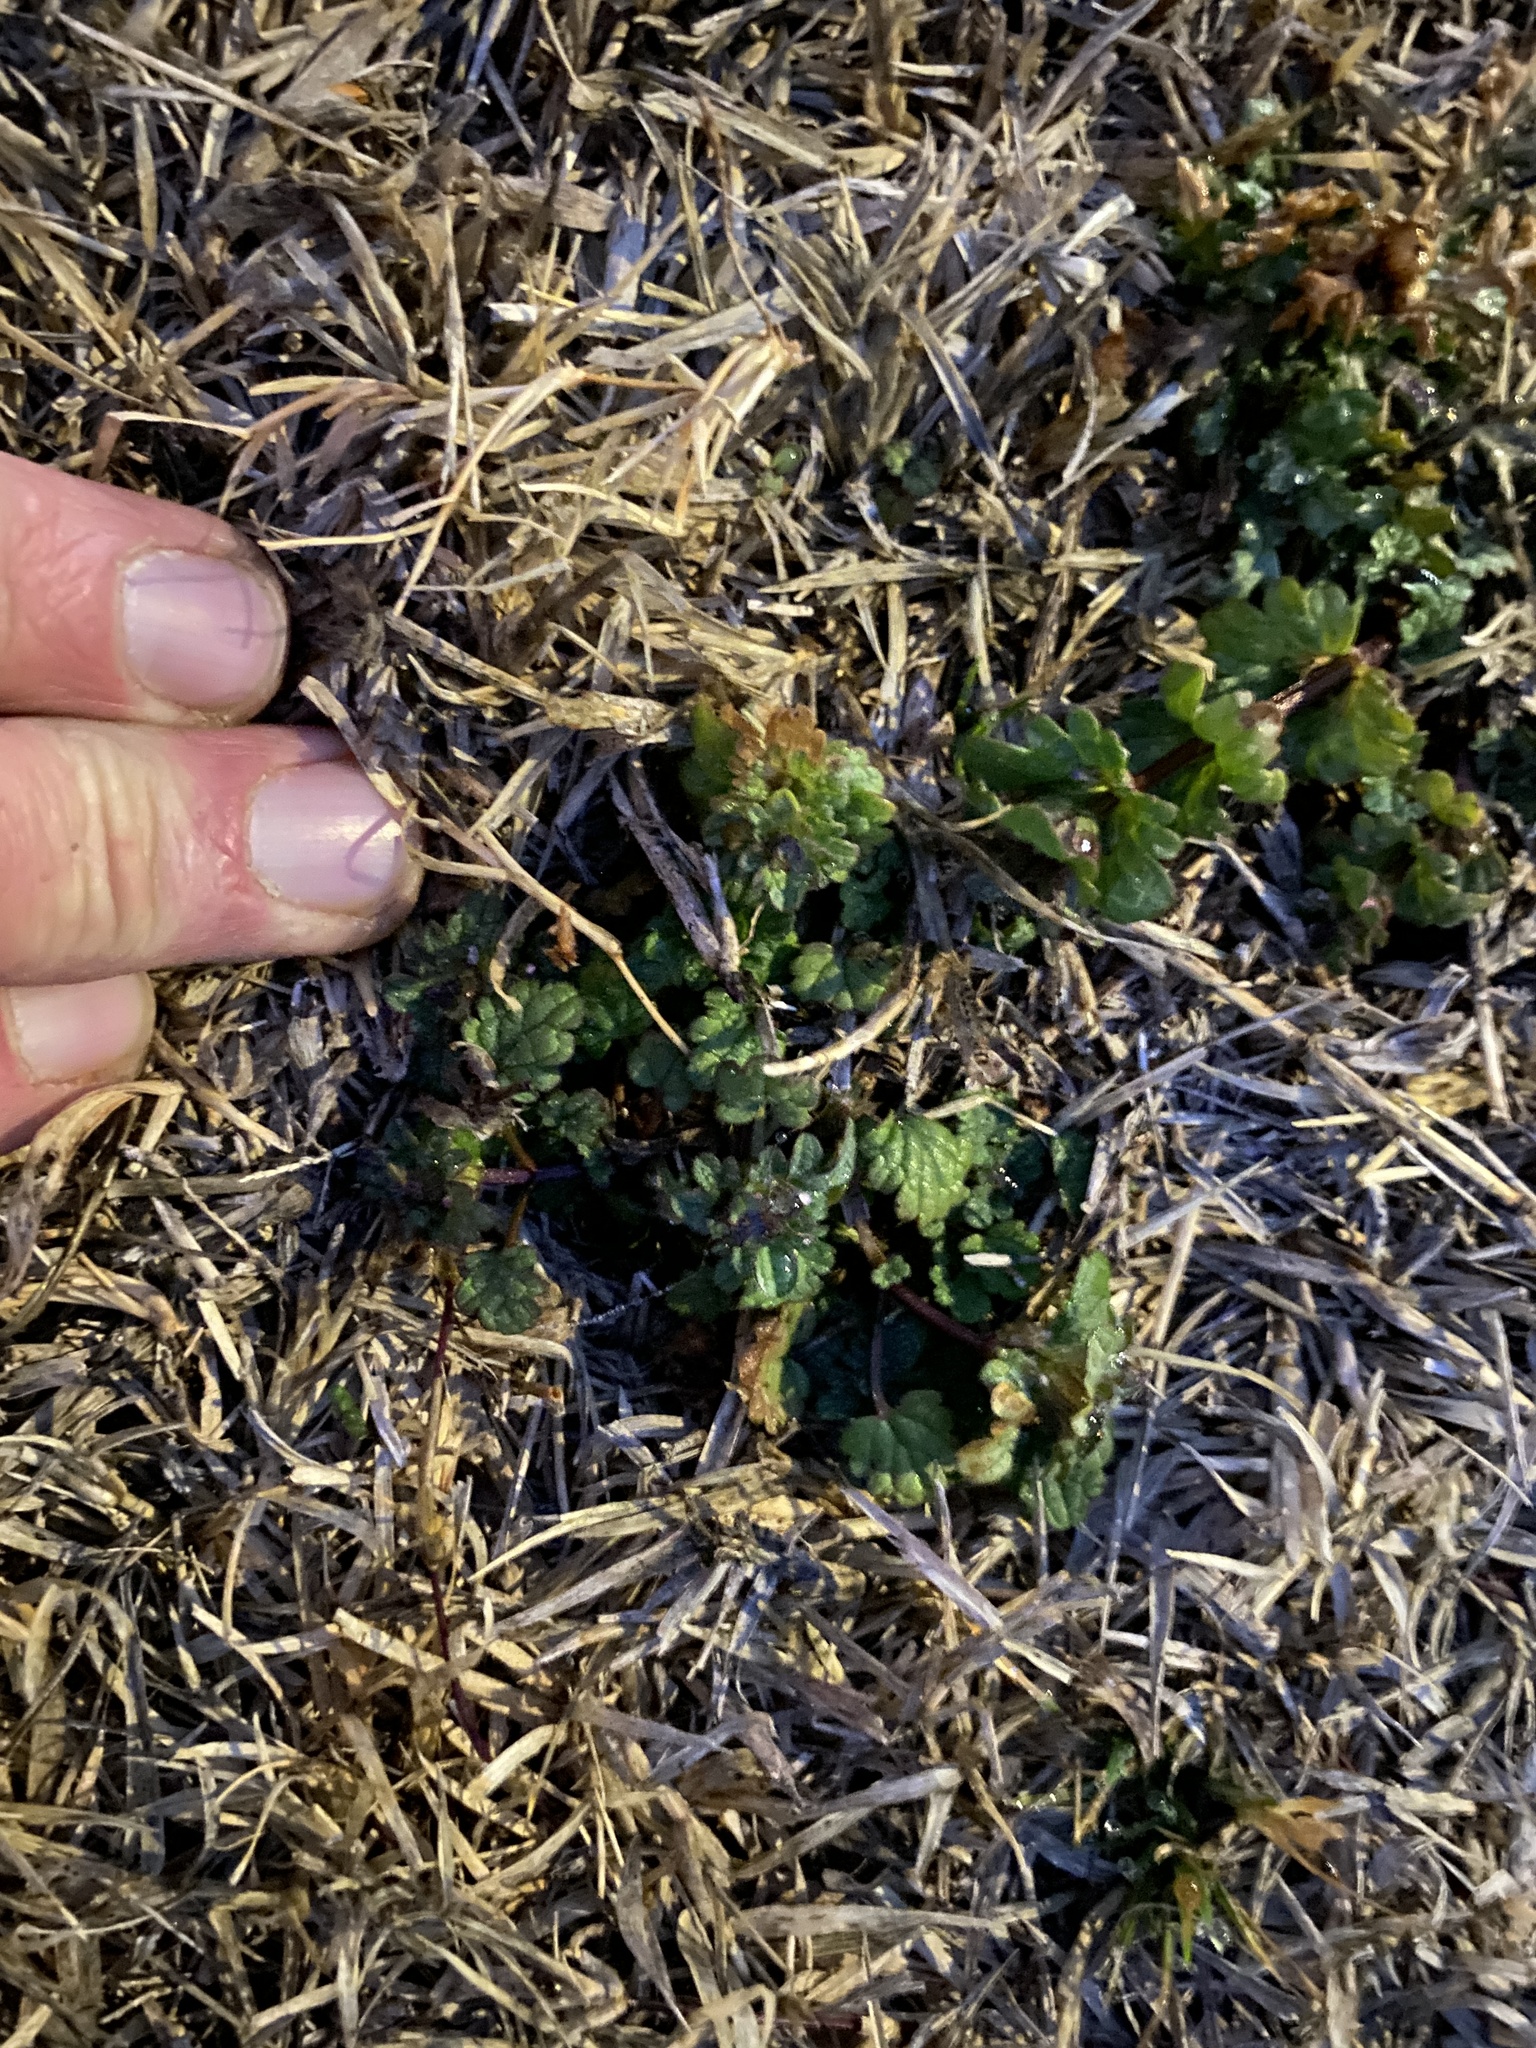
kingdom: Plantae
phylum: Tracheophyta
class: Magnoliopsida
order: Lamiales
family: Lamiaceae
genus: Lamium
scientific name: Lamium amplexicaule
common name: Henbit dead-nettle
